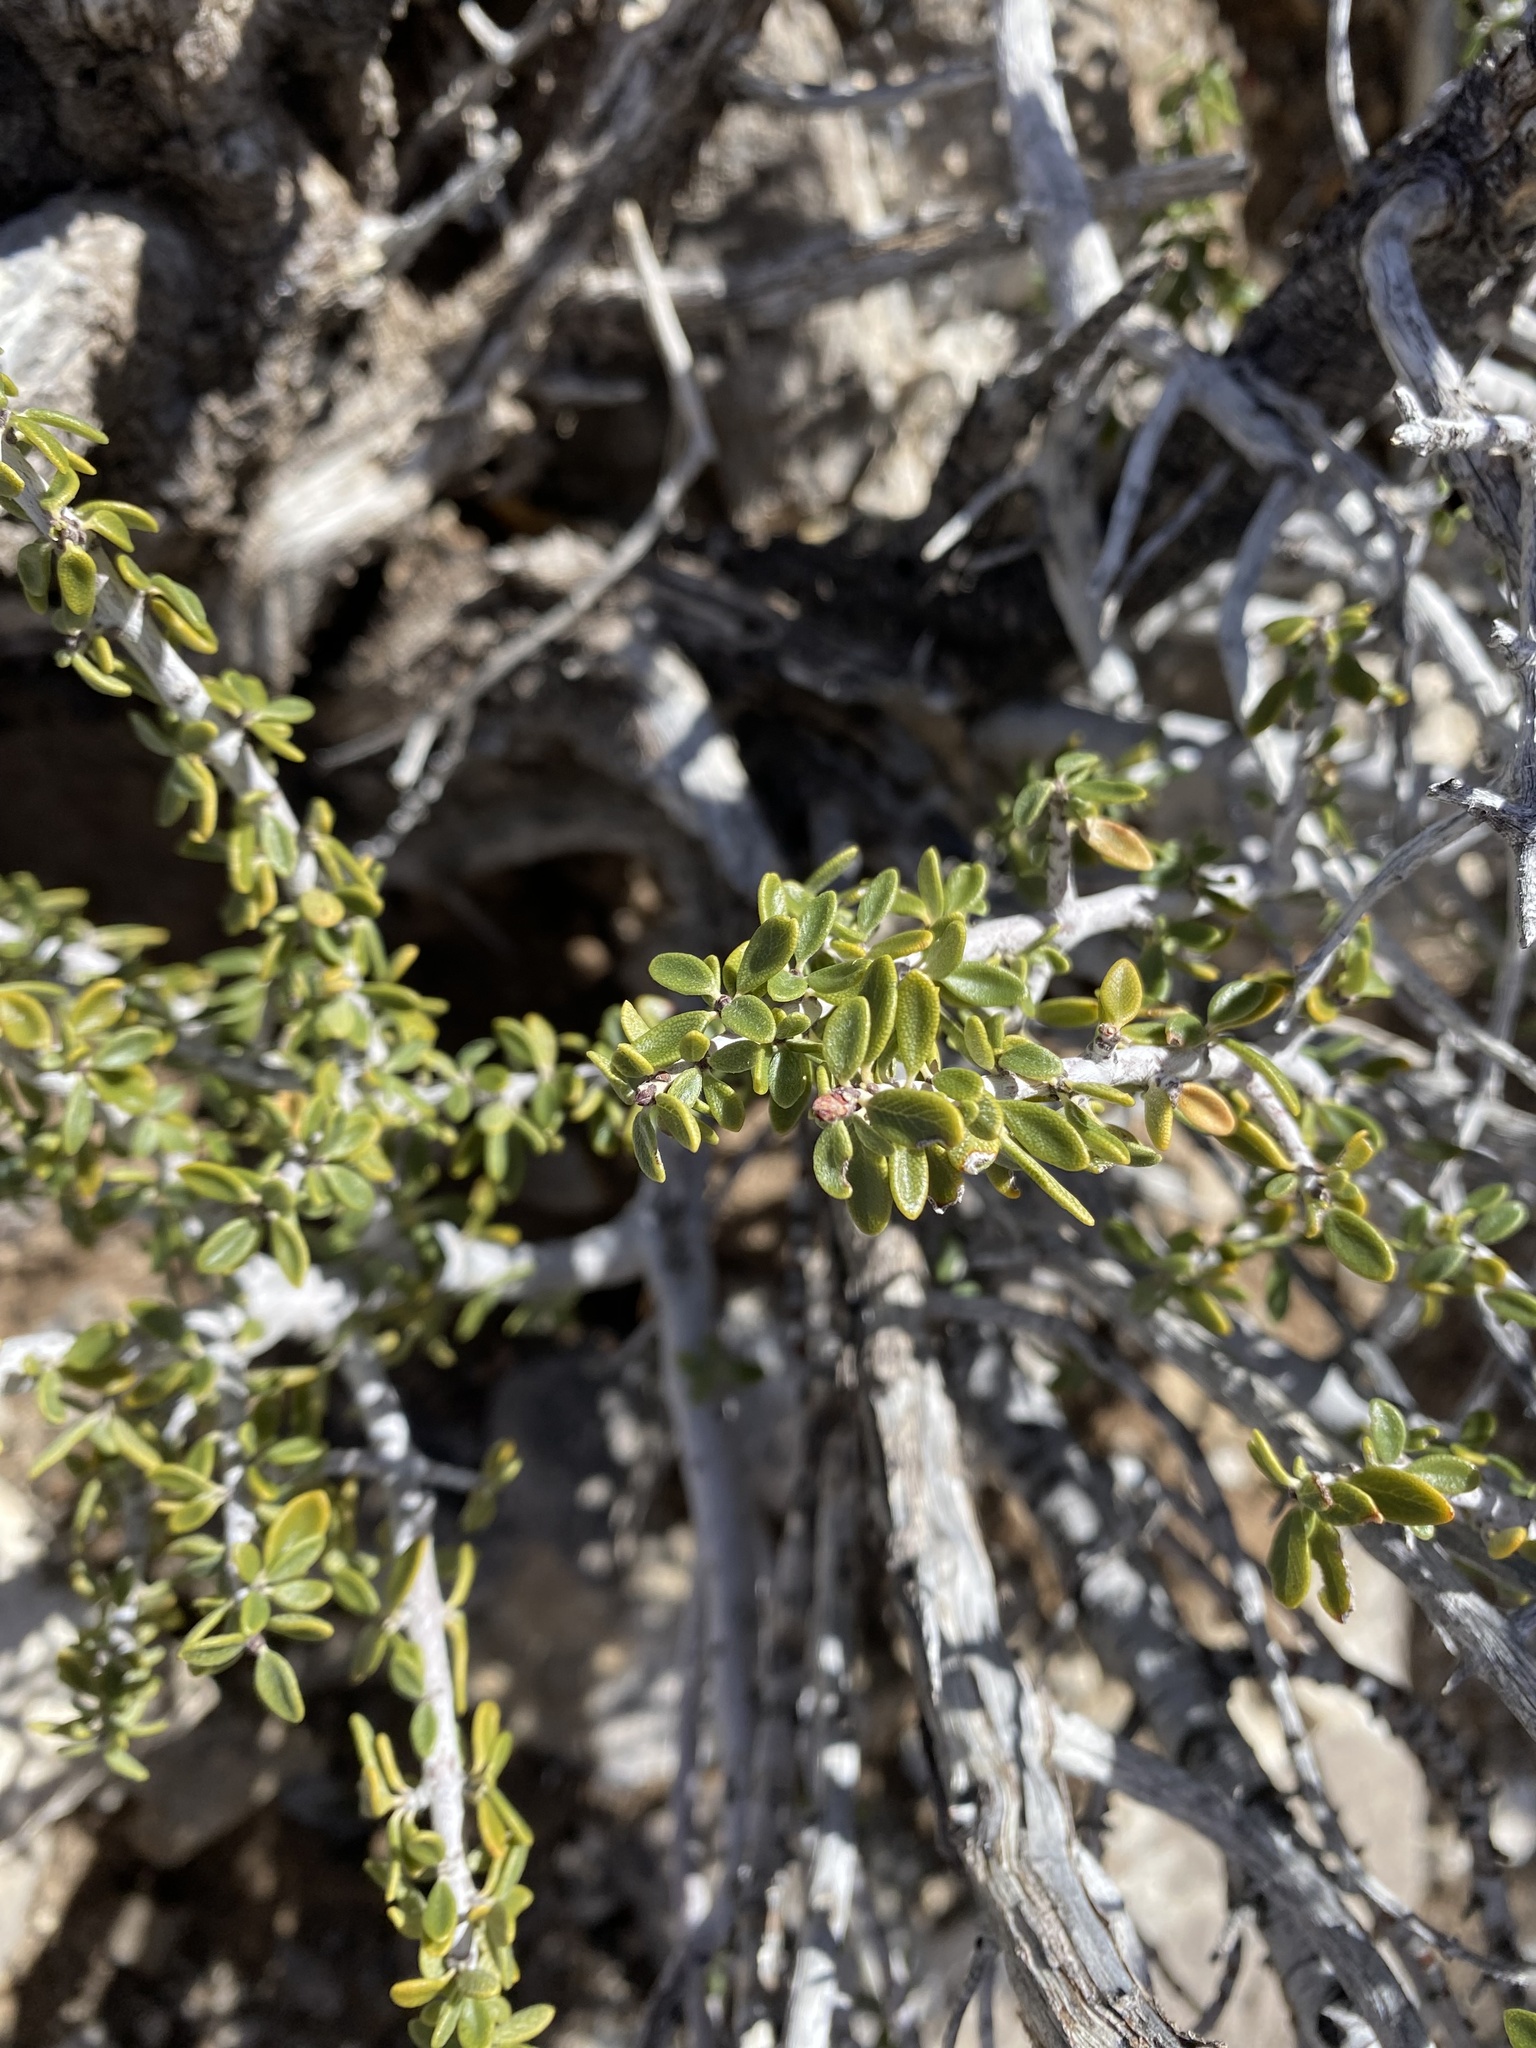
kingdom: Plantae
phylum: Tracheophyta
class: Magnoliopsida
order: Rosales
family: Rhamnaceae
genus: Ceanothus
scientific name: Ceanothus pauciflorus
